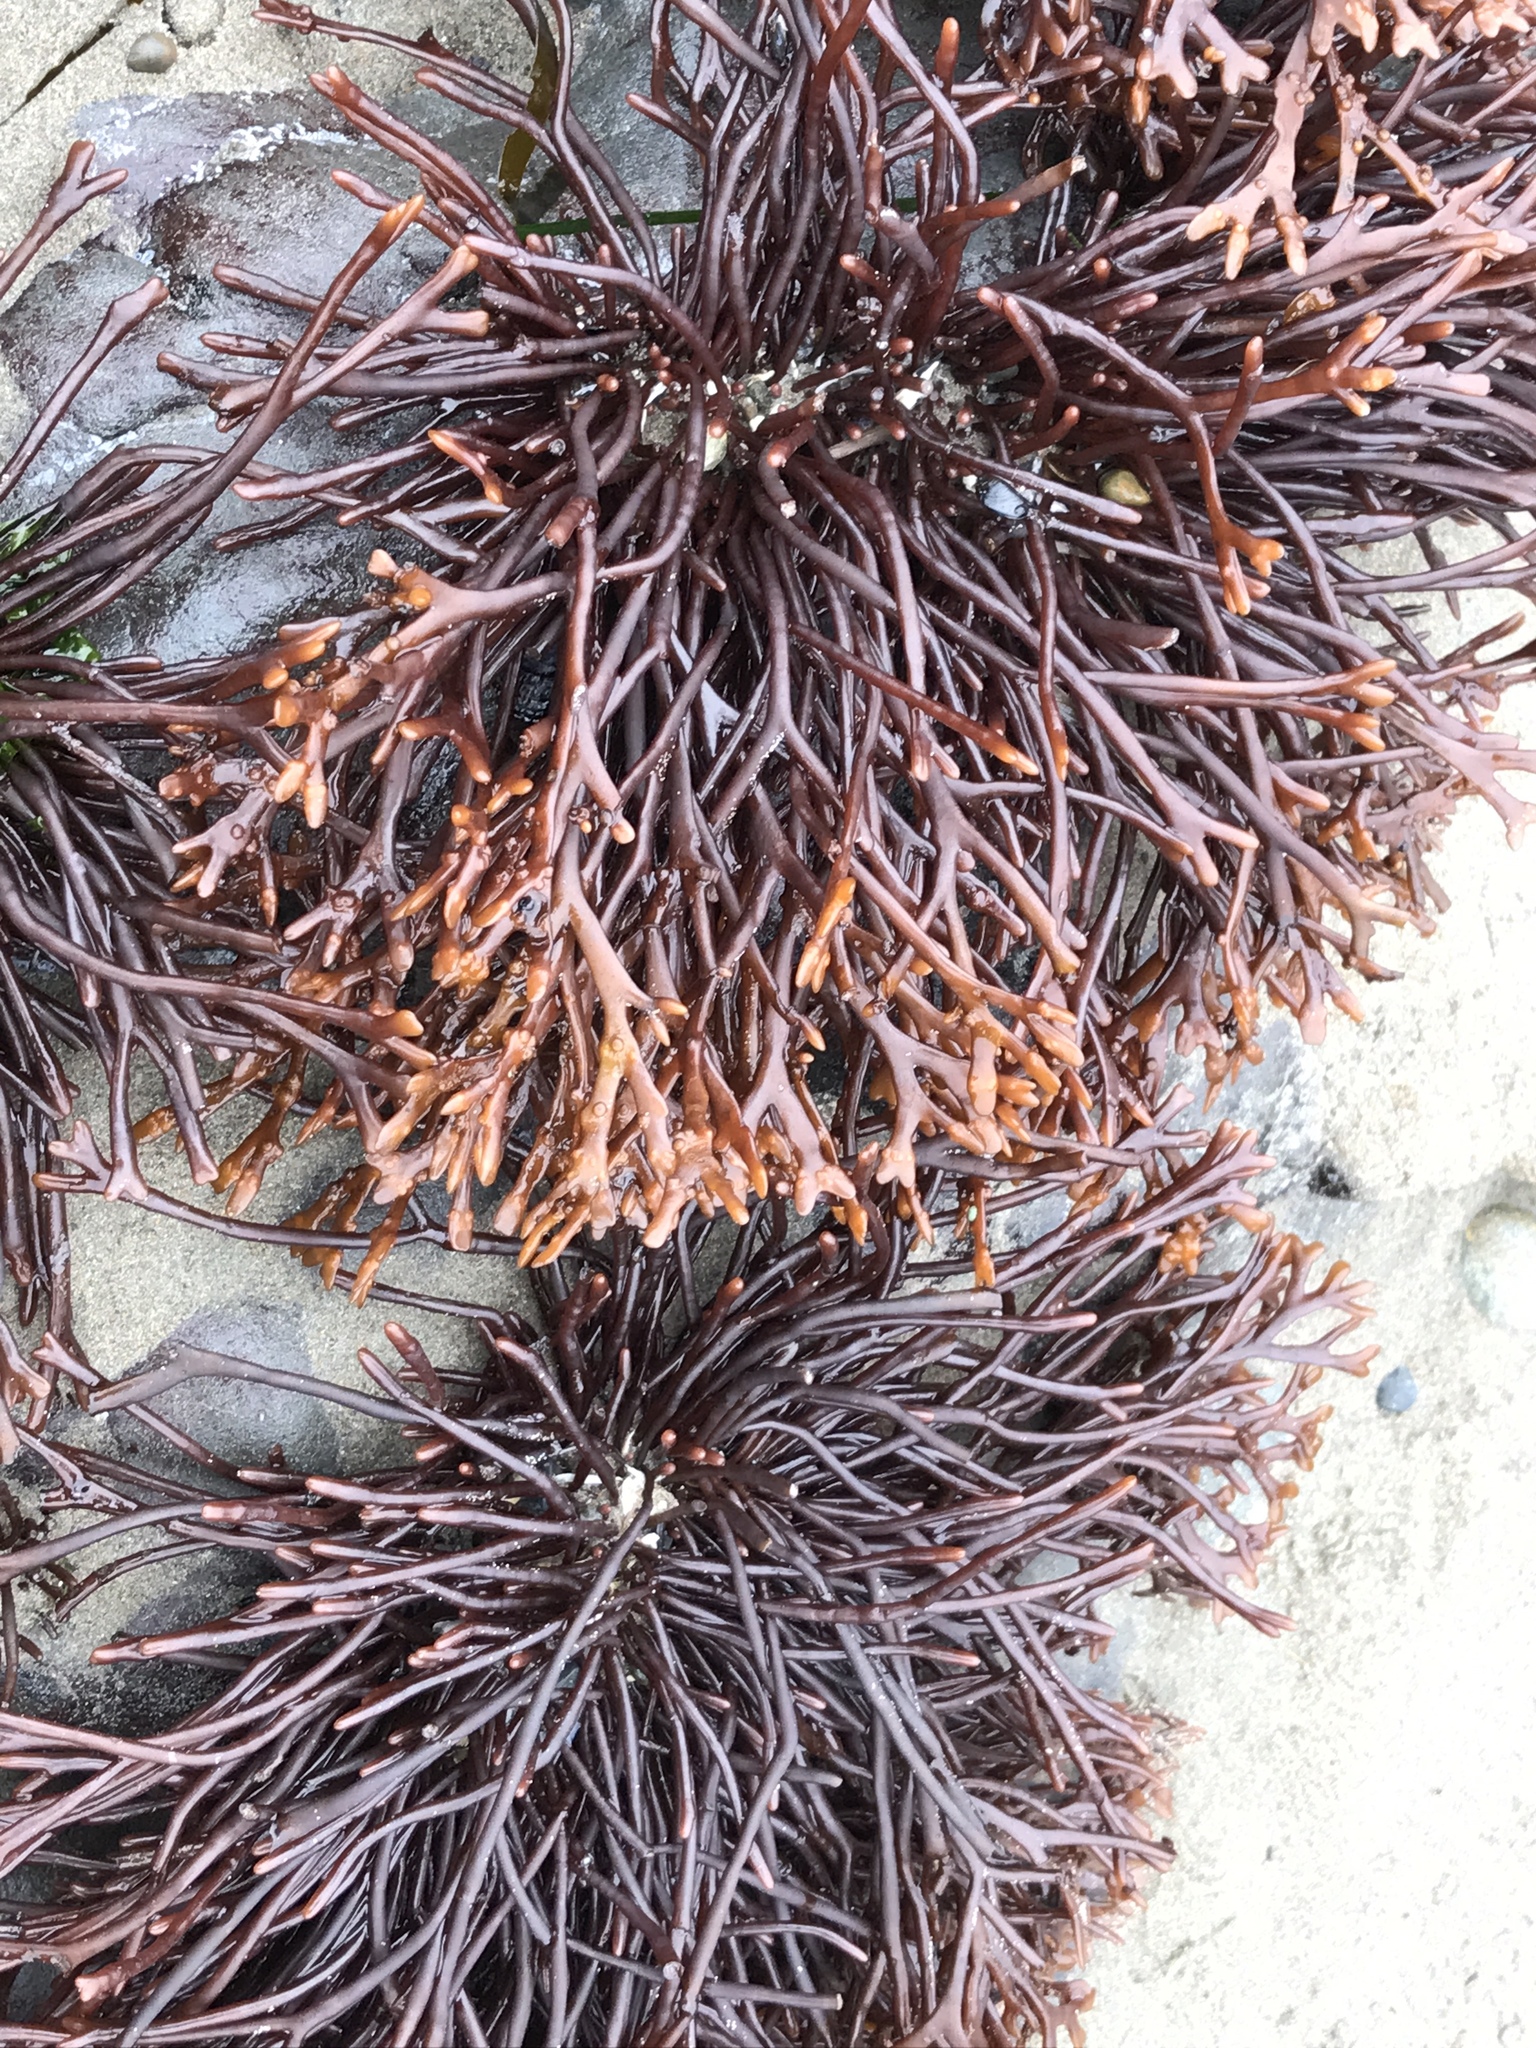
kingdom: Plantae
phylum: Rhodophyta
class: Florideophyceae
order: Gigartinales
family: Phyllophoraceae
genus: Ahnfeltiopsis
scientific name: Ahnfeltiopsis linearis
